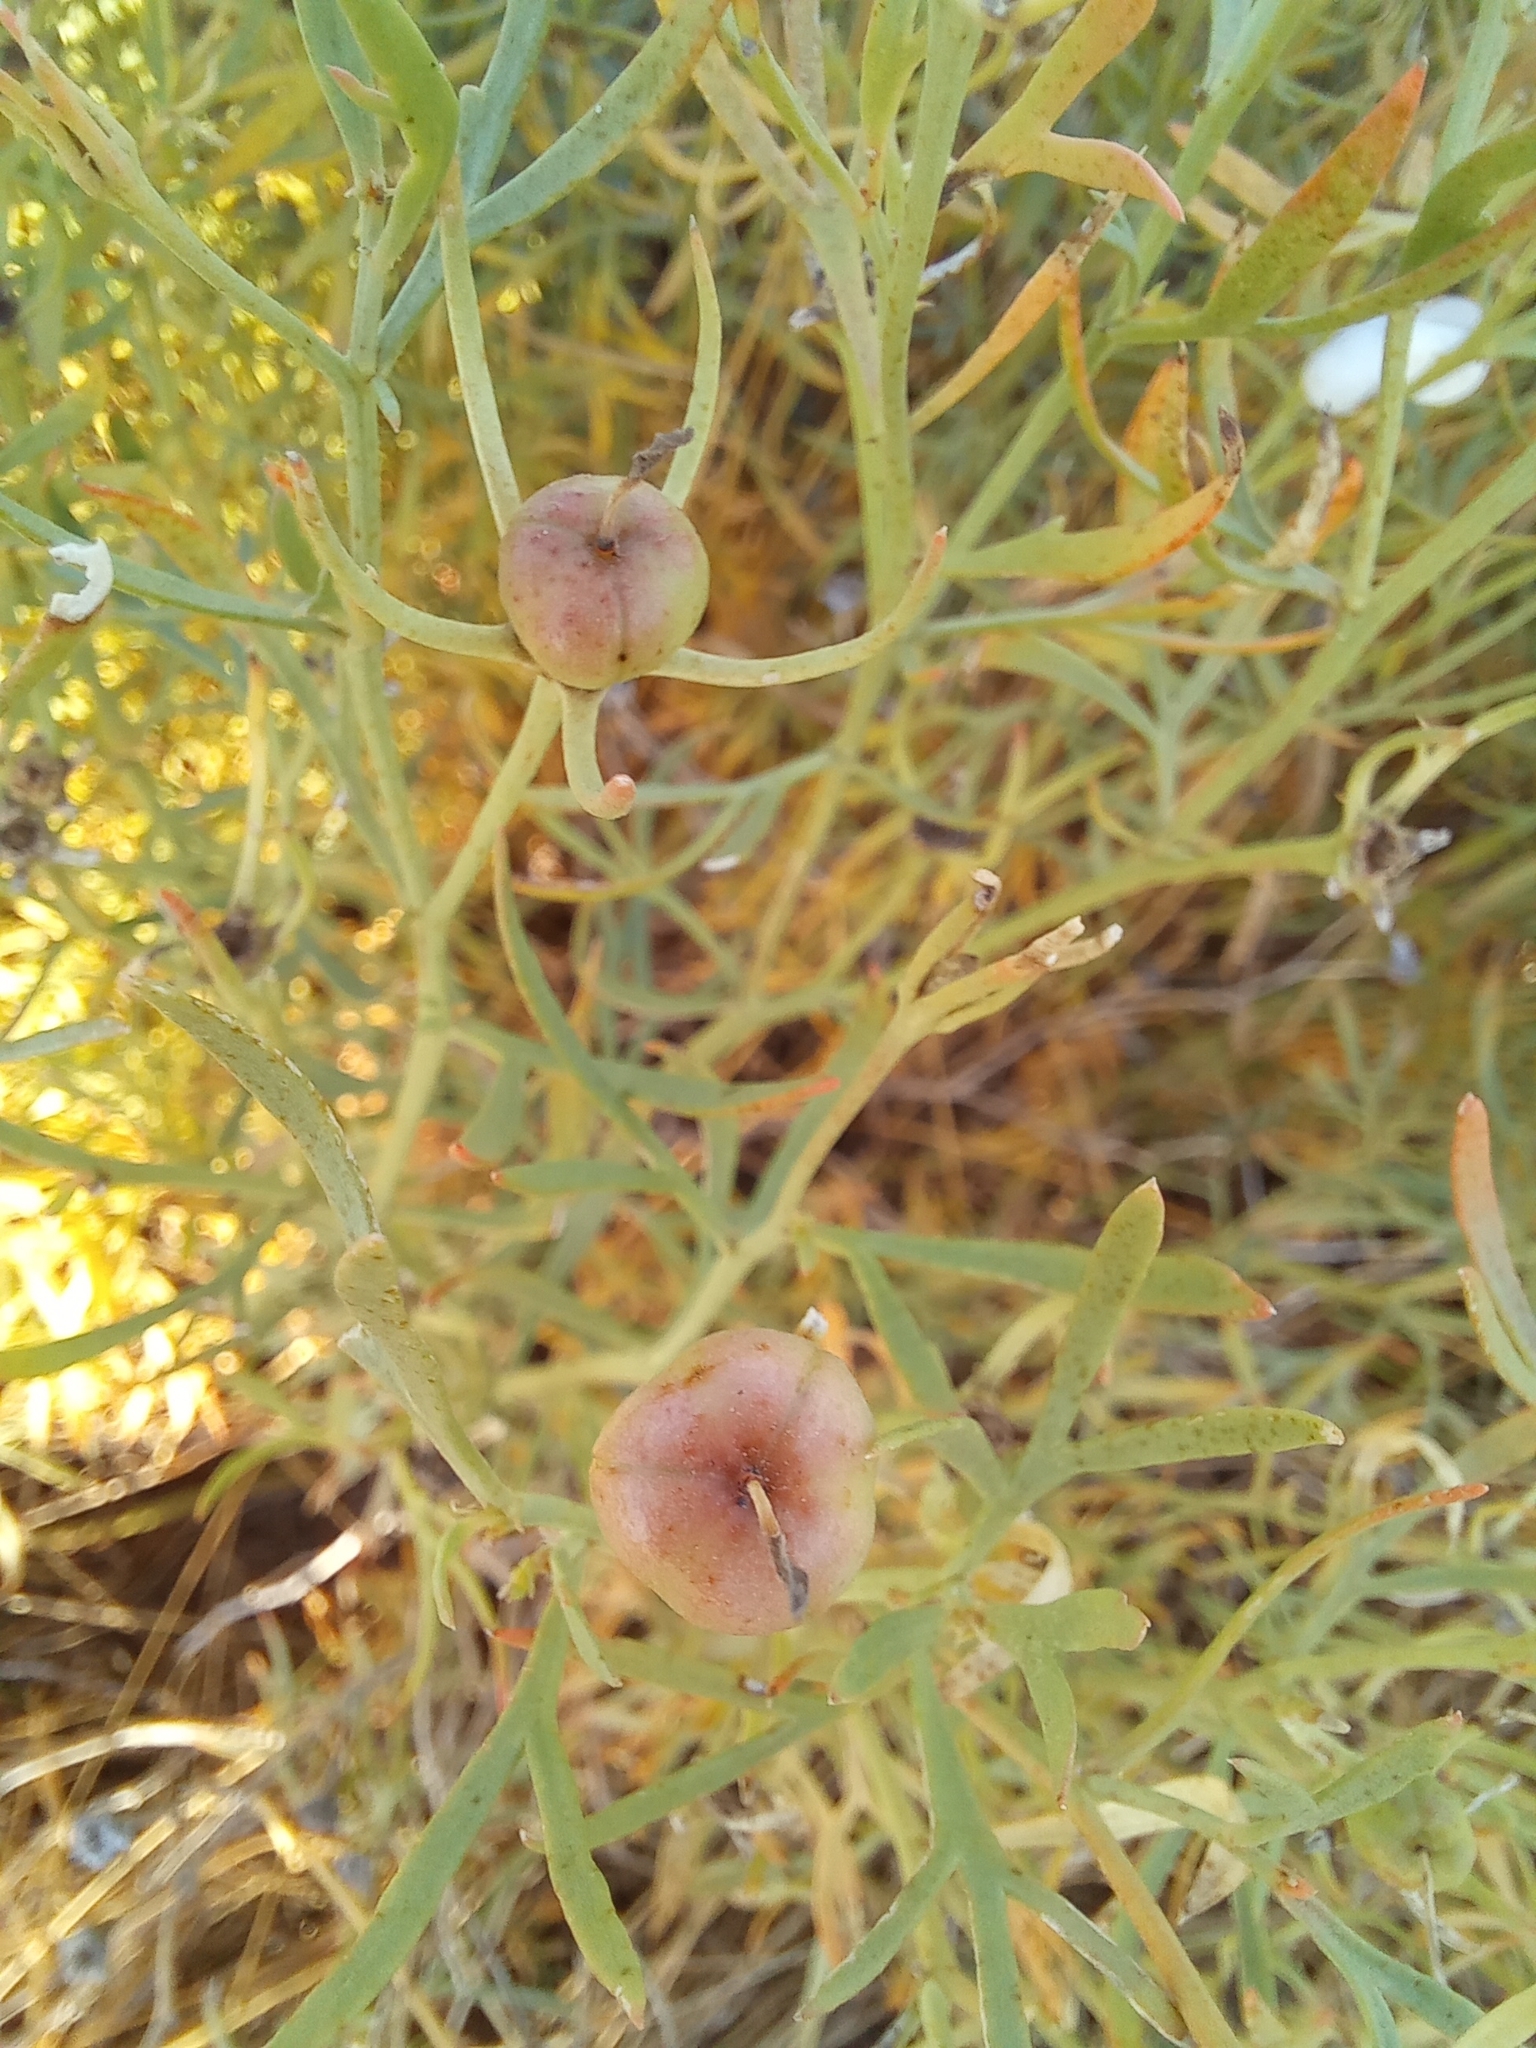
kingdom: Plantae
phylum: Tracheophyta
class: Magnoliopsida
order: Sapindales
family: Tetradiclidaceae
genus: Peganum
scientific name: Peganum harmala
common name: Harmal peganum
